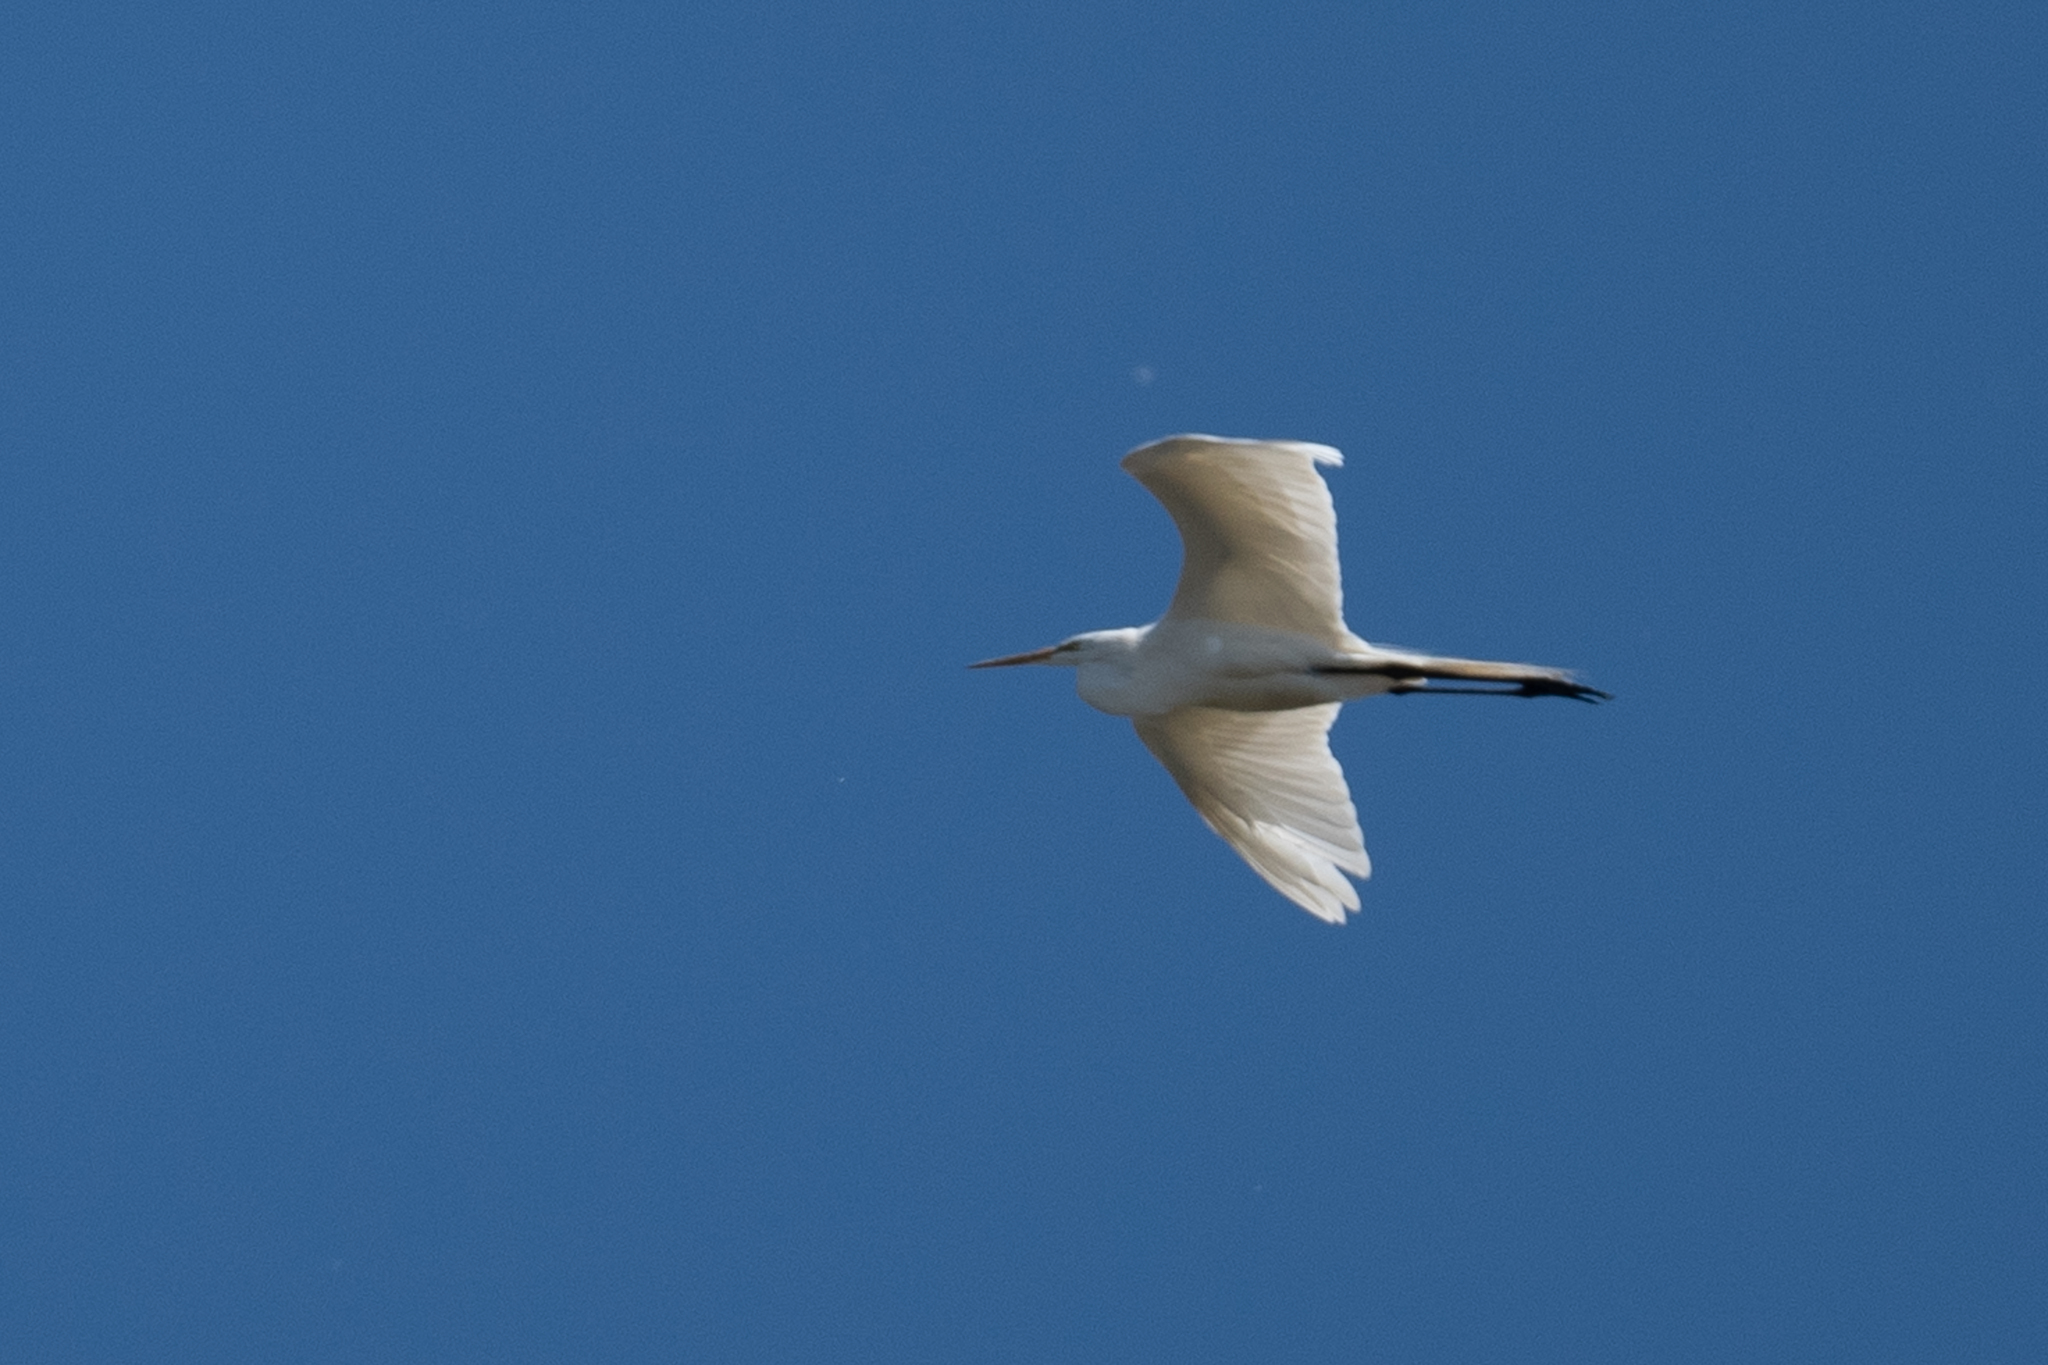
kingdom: Animalia
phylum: Chordata
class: Aves
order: Pelecaniformes
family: Ardeidae
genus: Ardea
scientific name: Ardea alba
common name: Great egret
